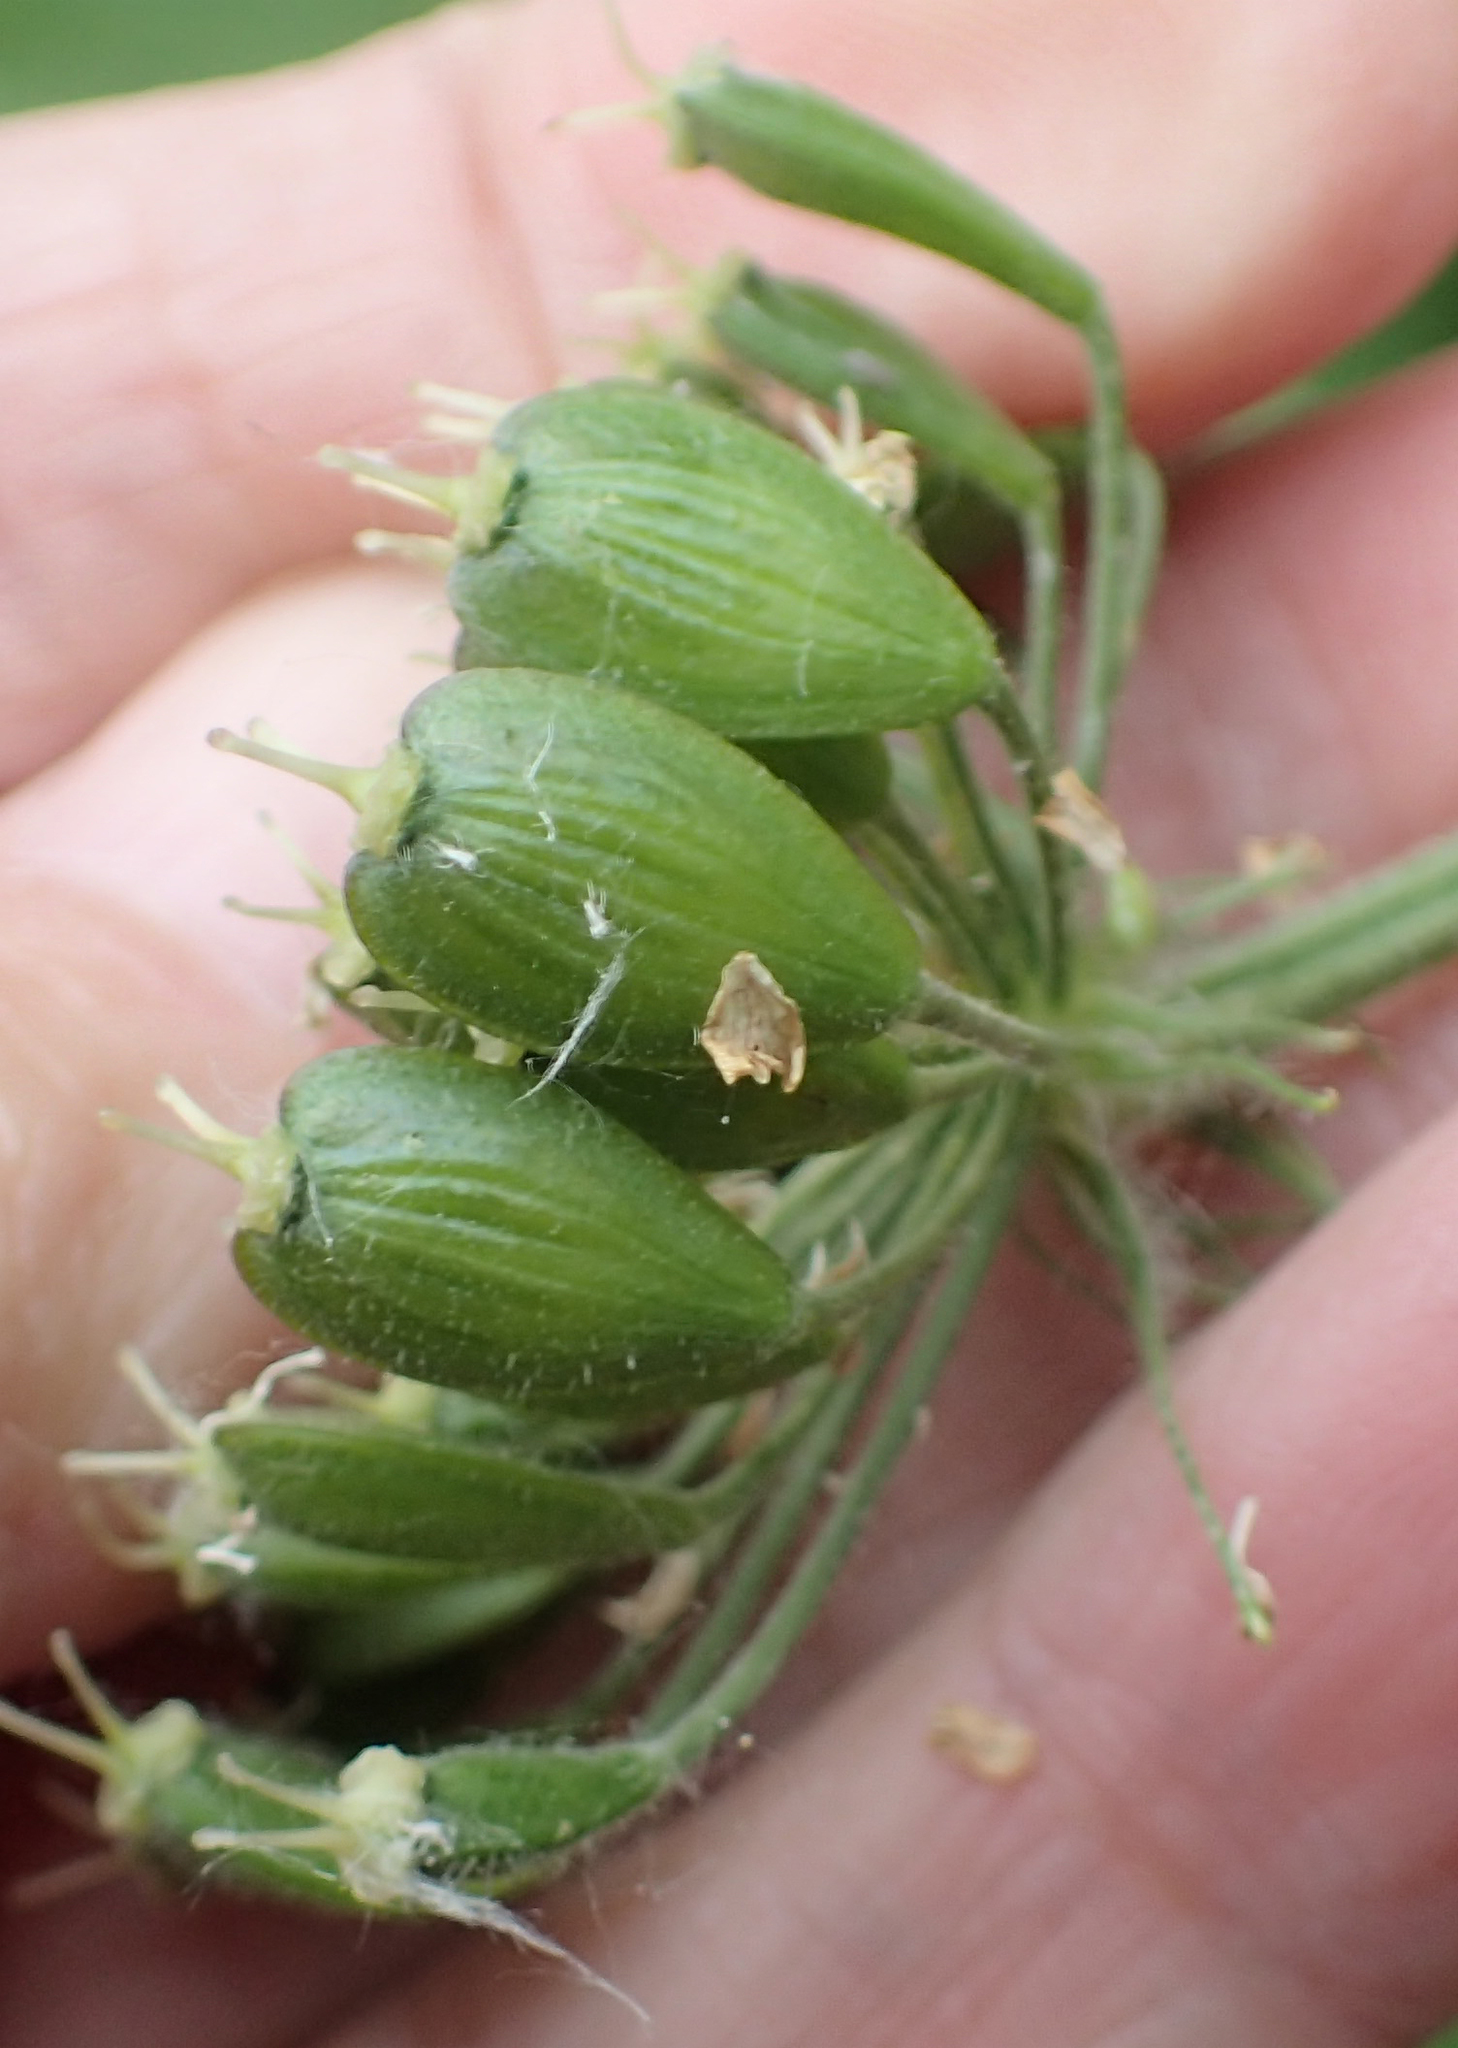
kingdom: Plantae
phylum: Tracheophyta
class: Magnoliopsida
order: Apiales
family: Apiaceae
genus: Heracleum
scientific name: Heracleum maximum
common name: American cow parsnip
